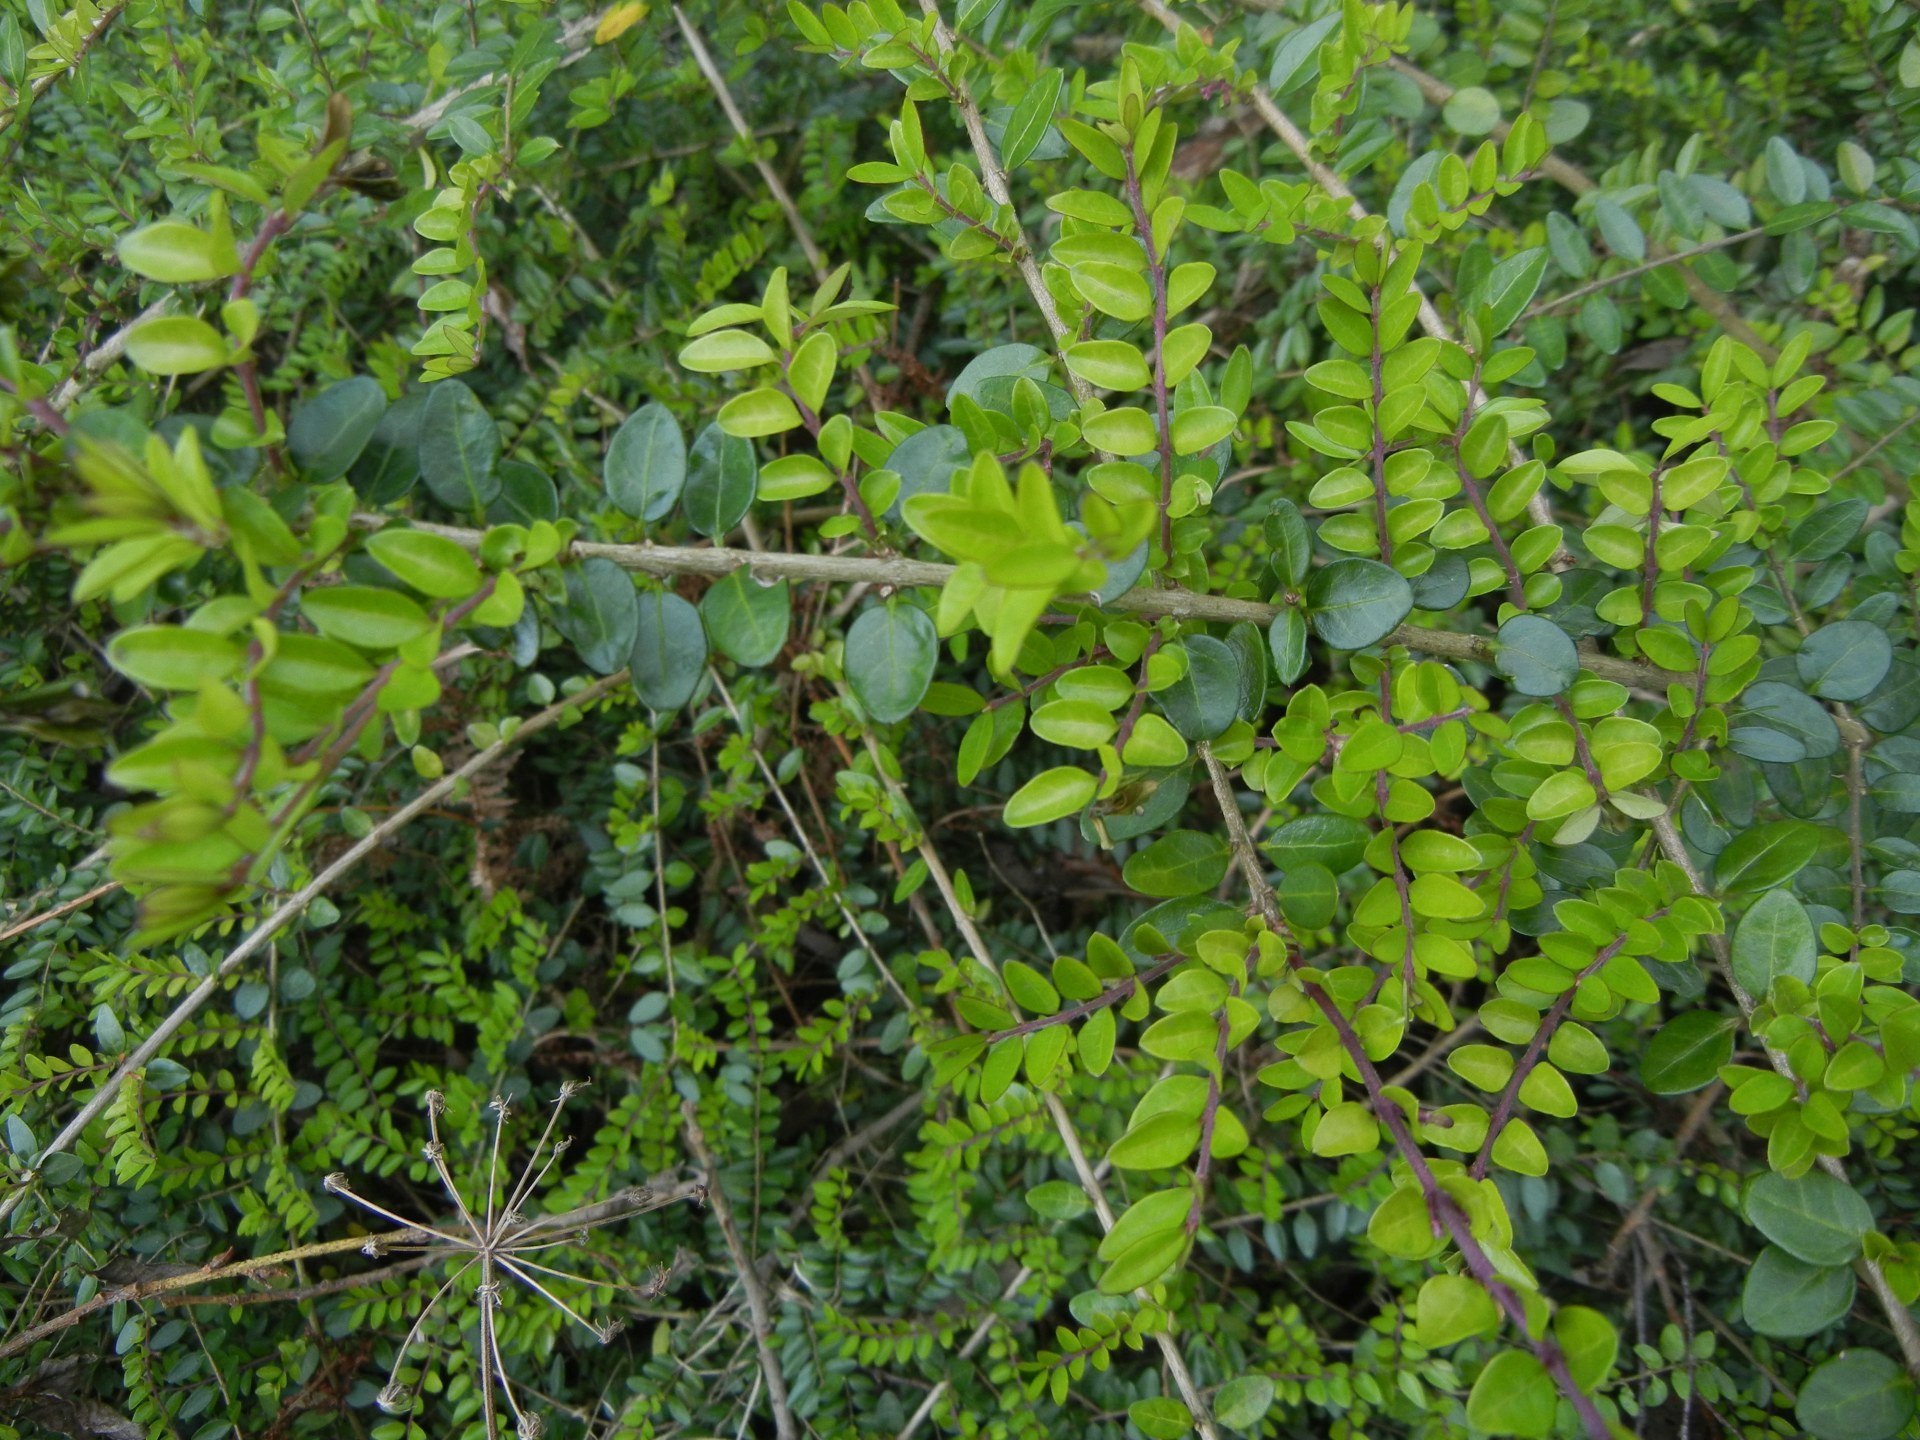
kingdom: Plantae
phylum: Tracheophyta
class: Magnoliopsida
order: Dipsacales
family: Caprifoliaceae
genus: Lonicera
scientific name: Lonicera pileata
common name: Box-leaved honeysuckle
